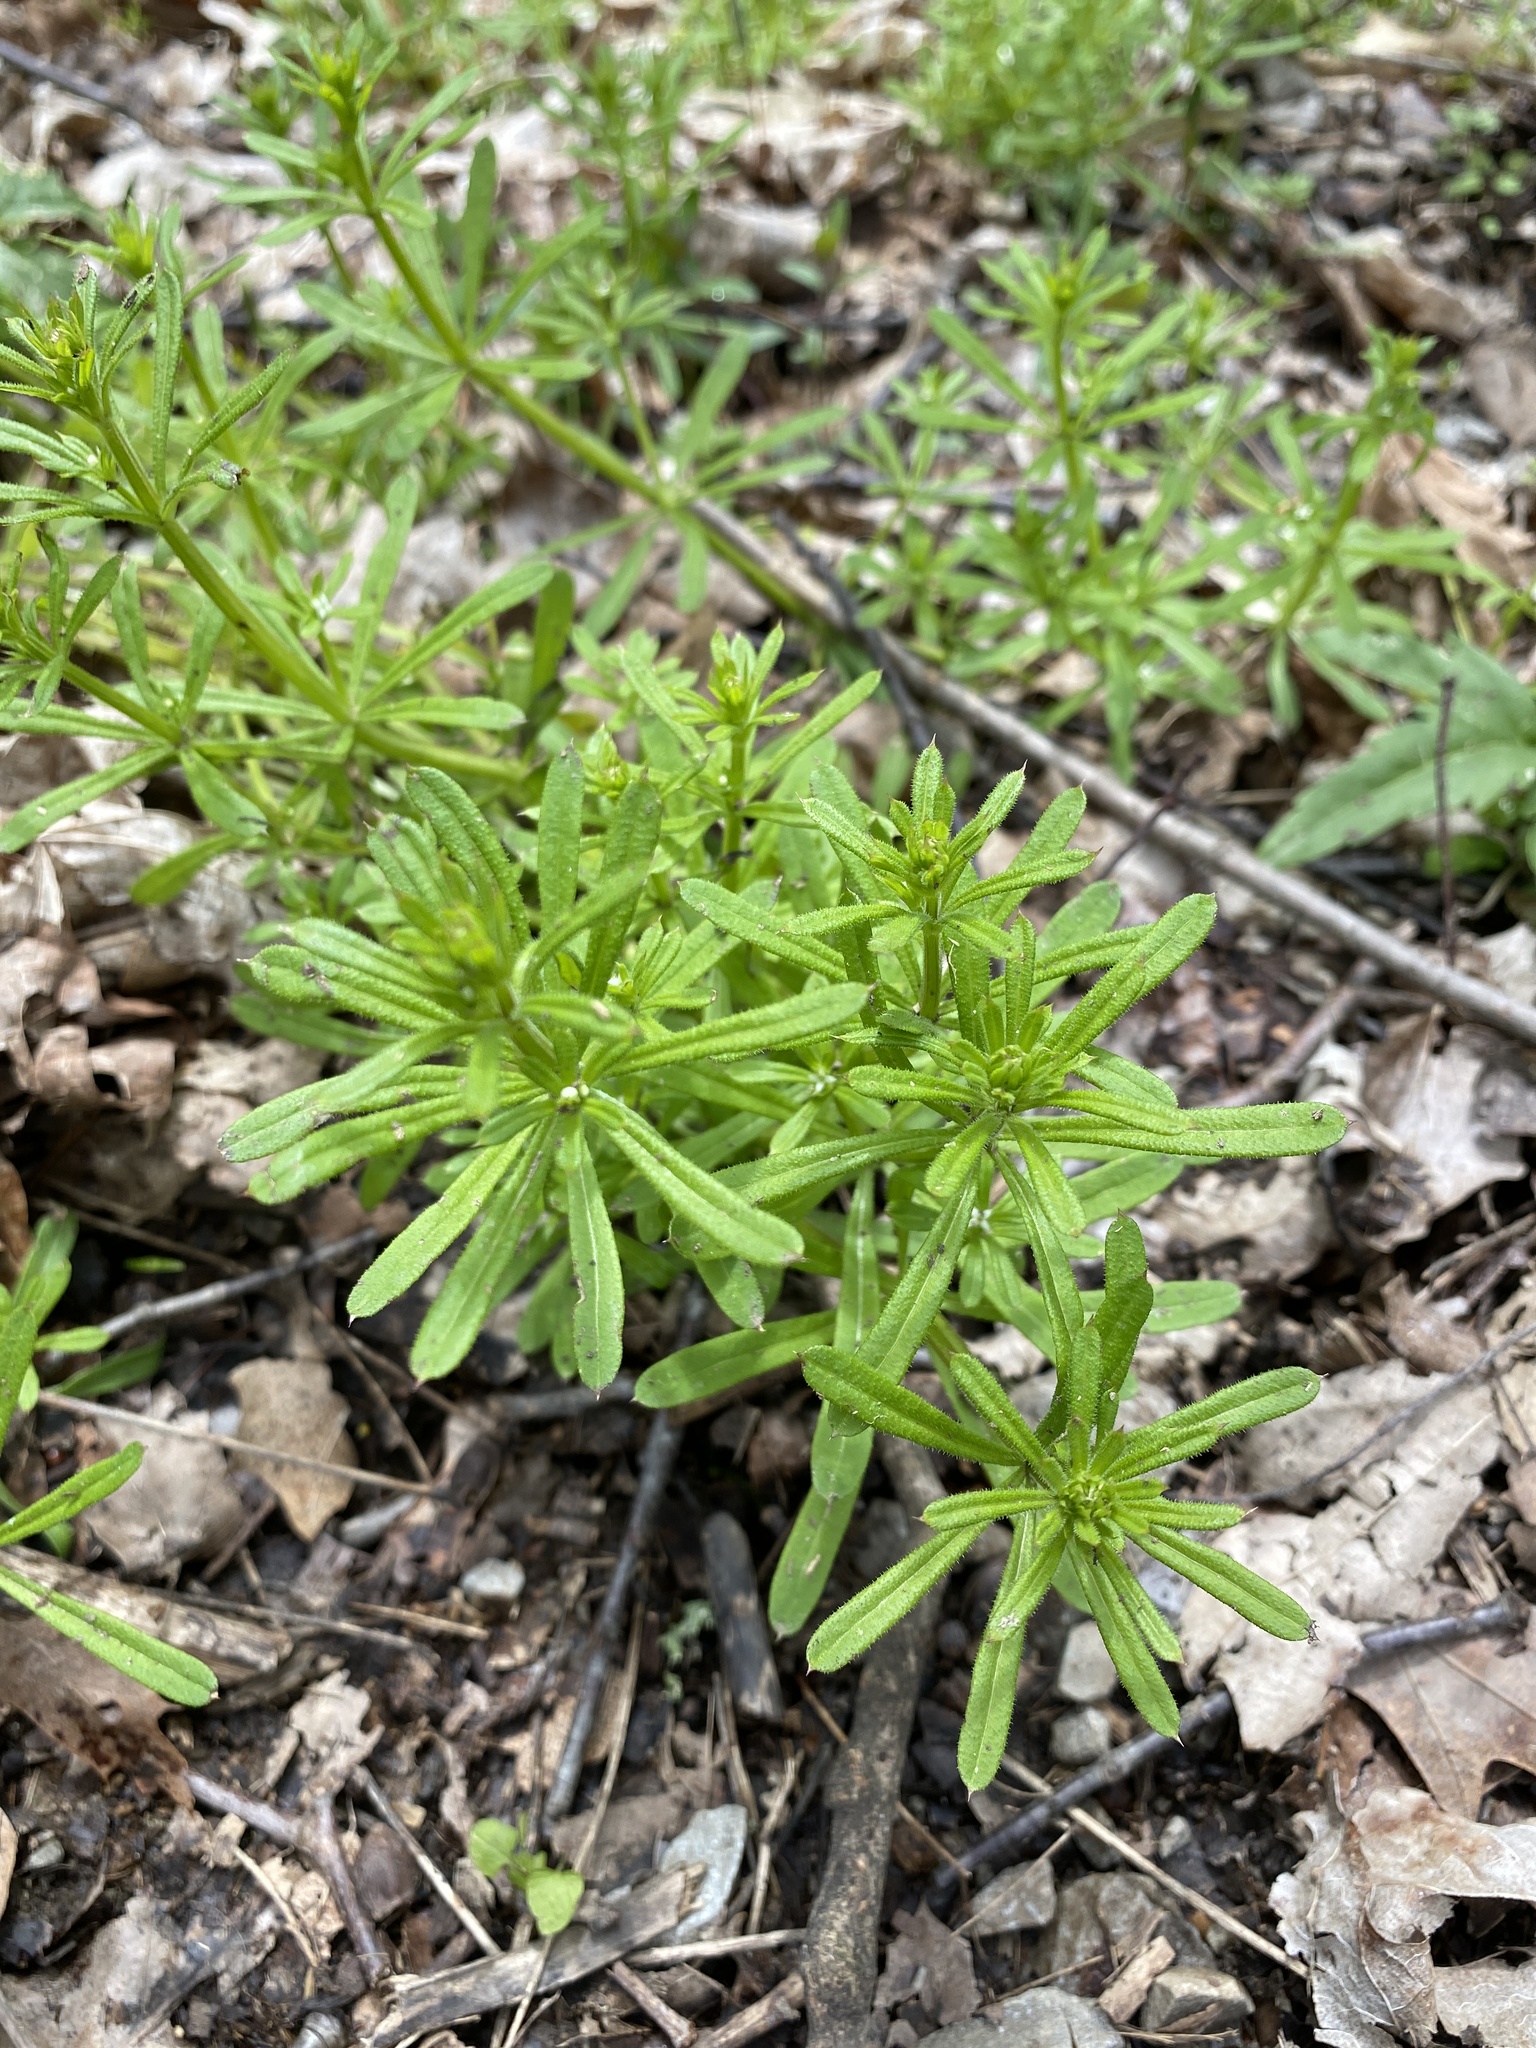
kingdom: Plantae
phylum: Tracheophyta
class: Magnoliopsida
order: Gentianales
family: Rubiaceae
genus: Galium
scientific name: Galium aparine
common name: Cleavers
